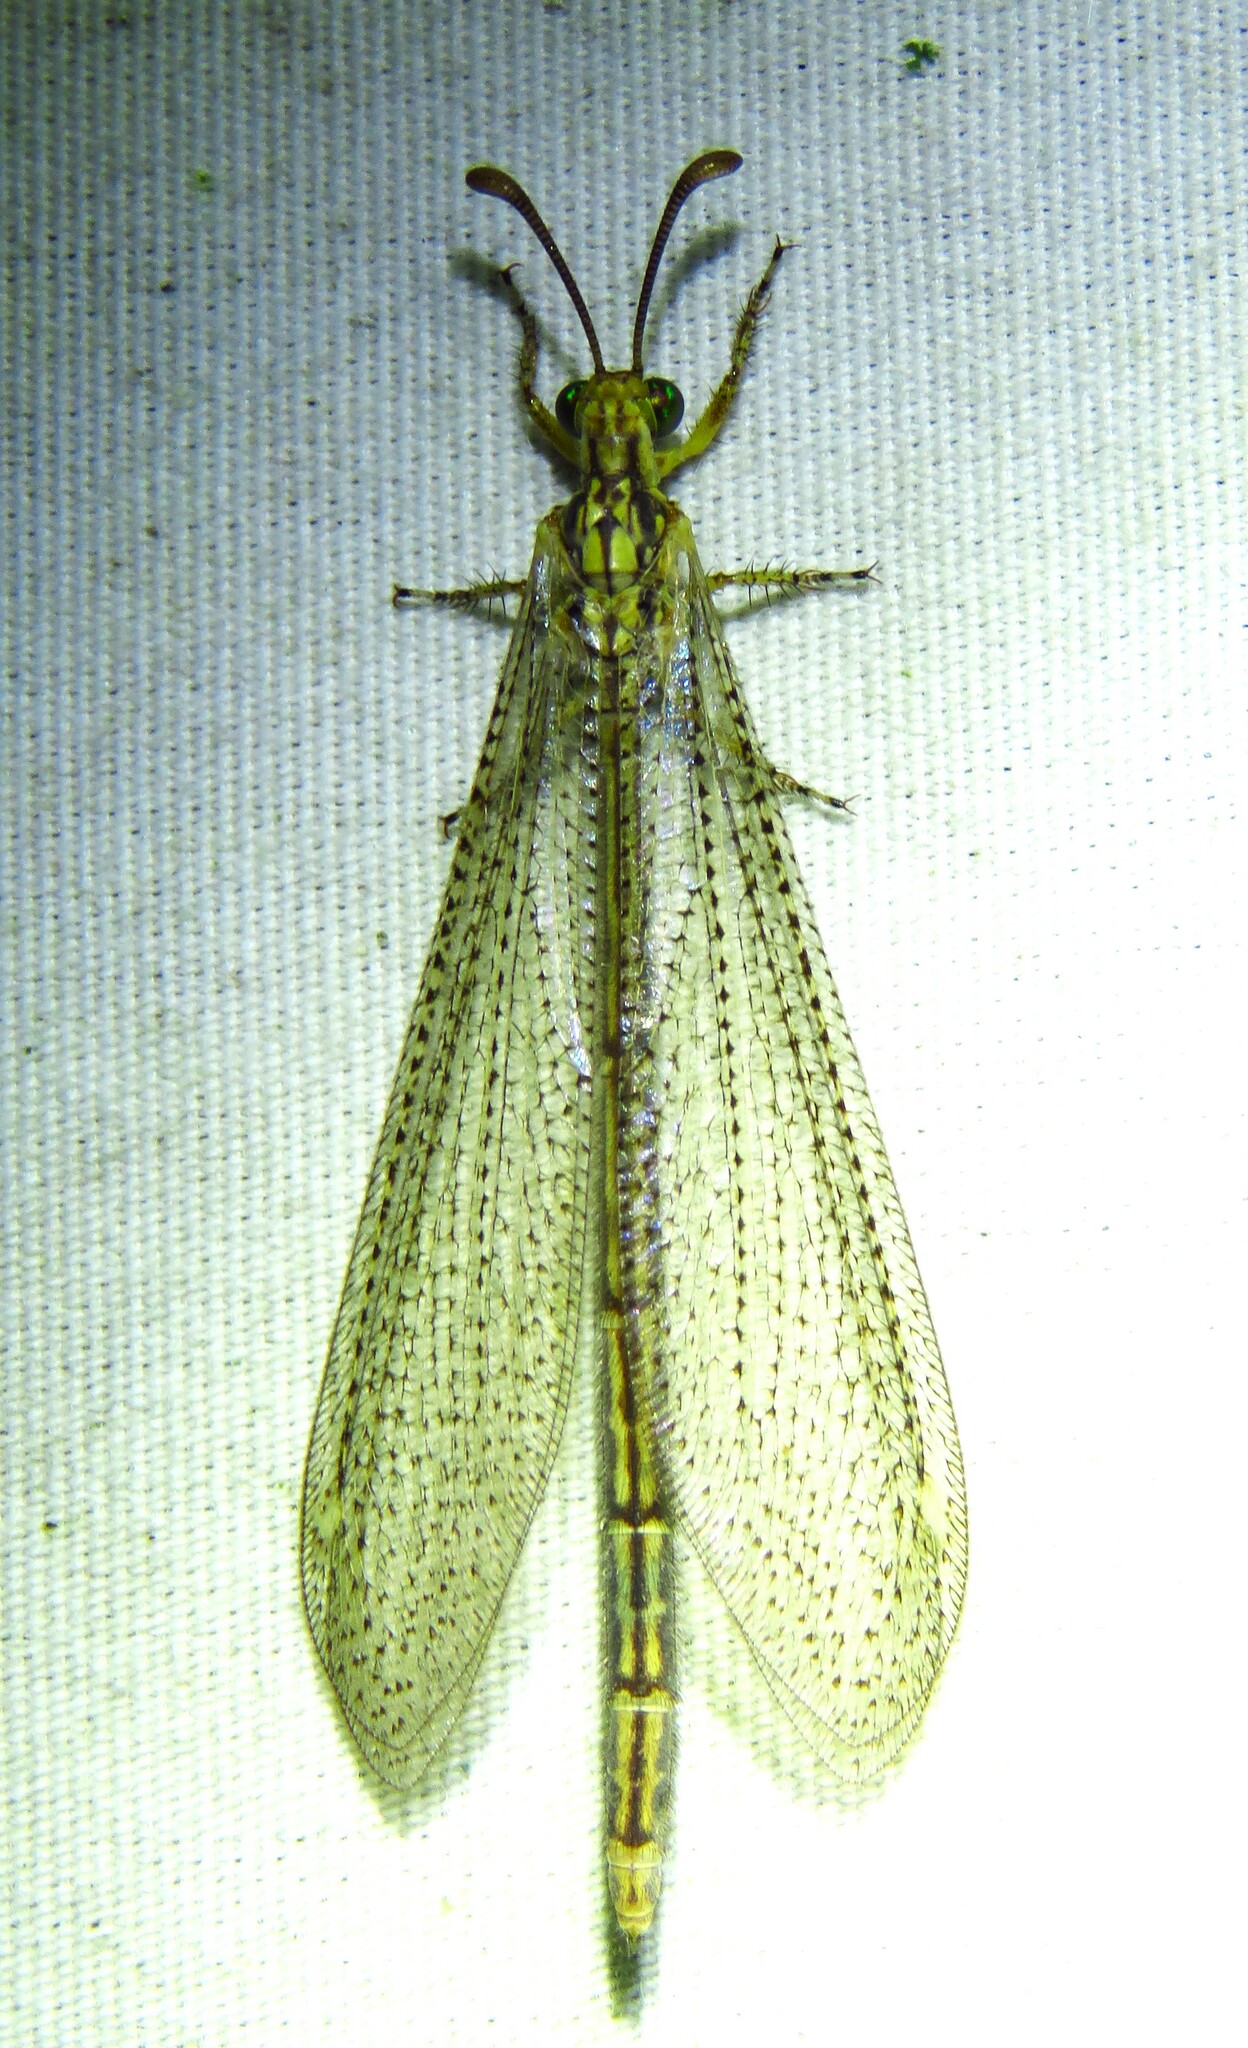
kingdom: Animalia
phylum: Arthropoda
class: Insecta
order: Neuroptera
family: Myrmeleontidae
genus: Brachynemurus
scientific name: Brachynemurus abdominalis
